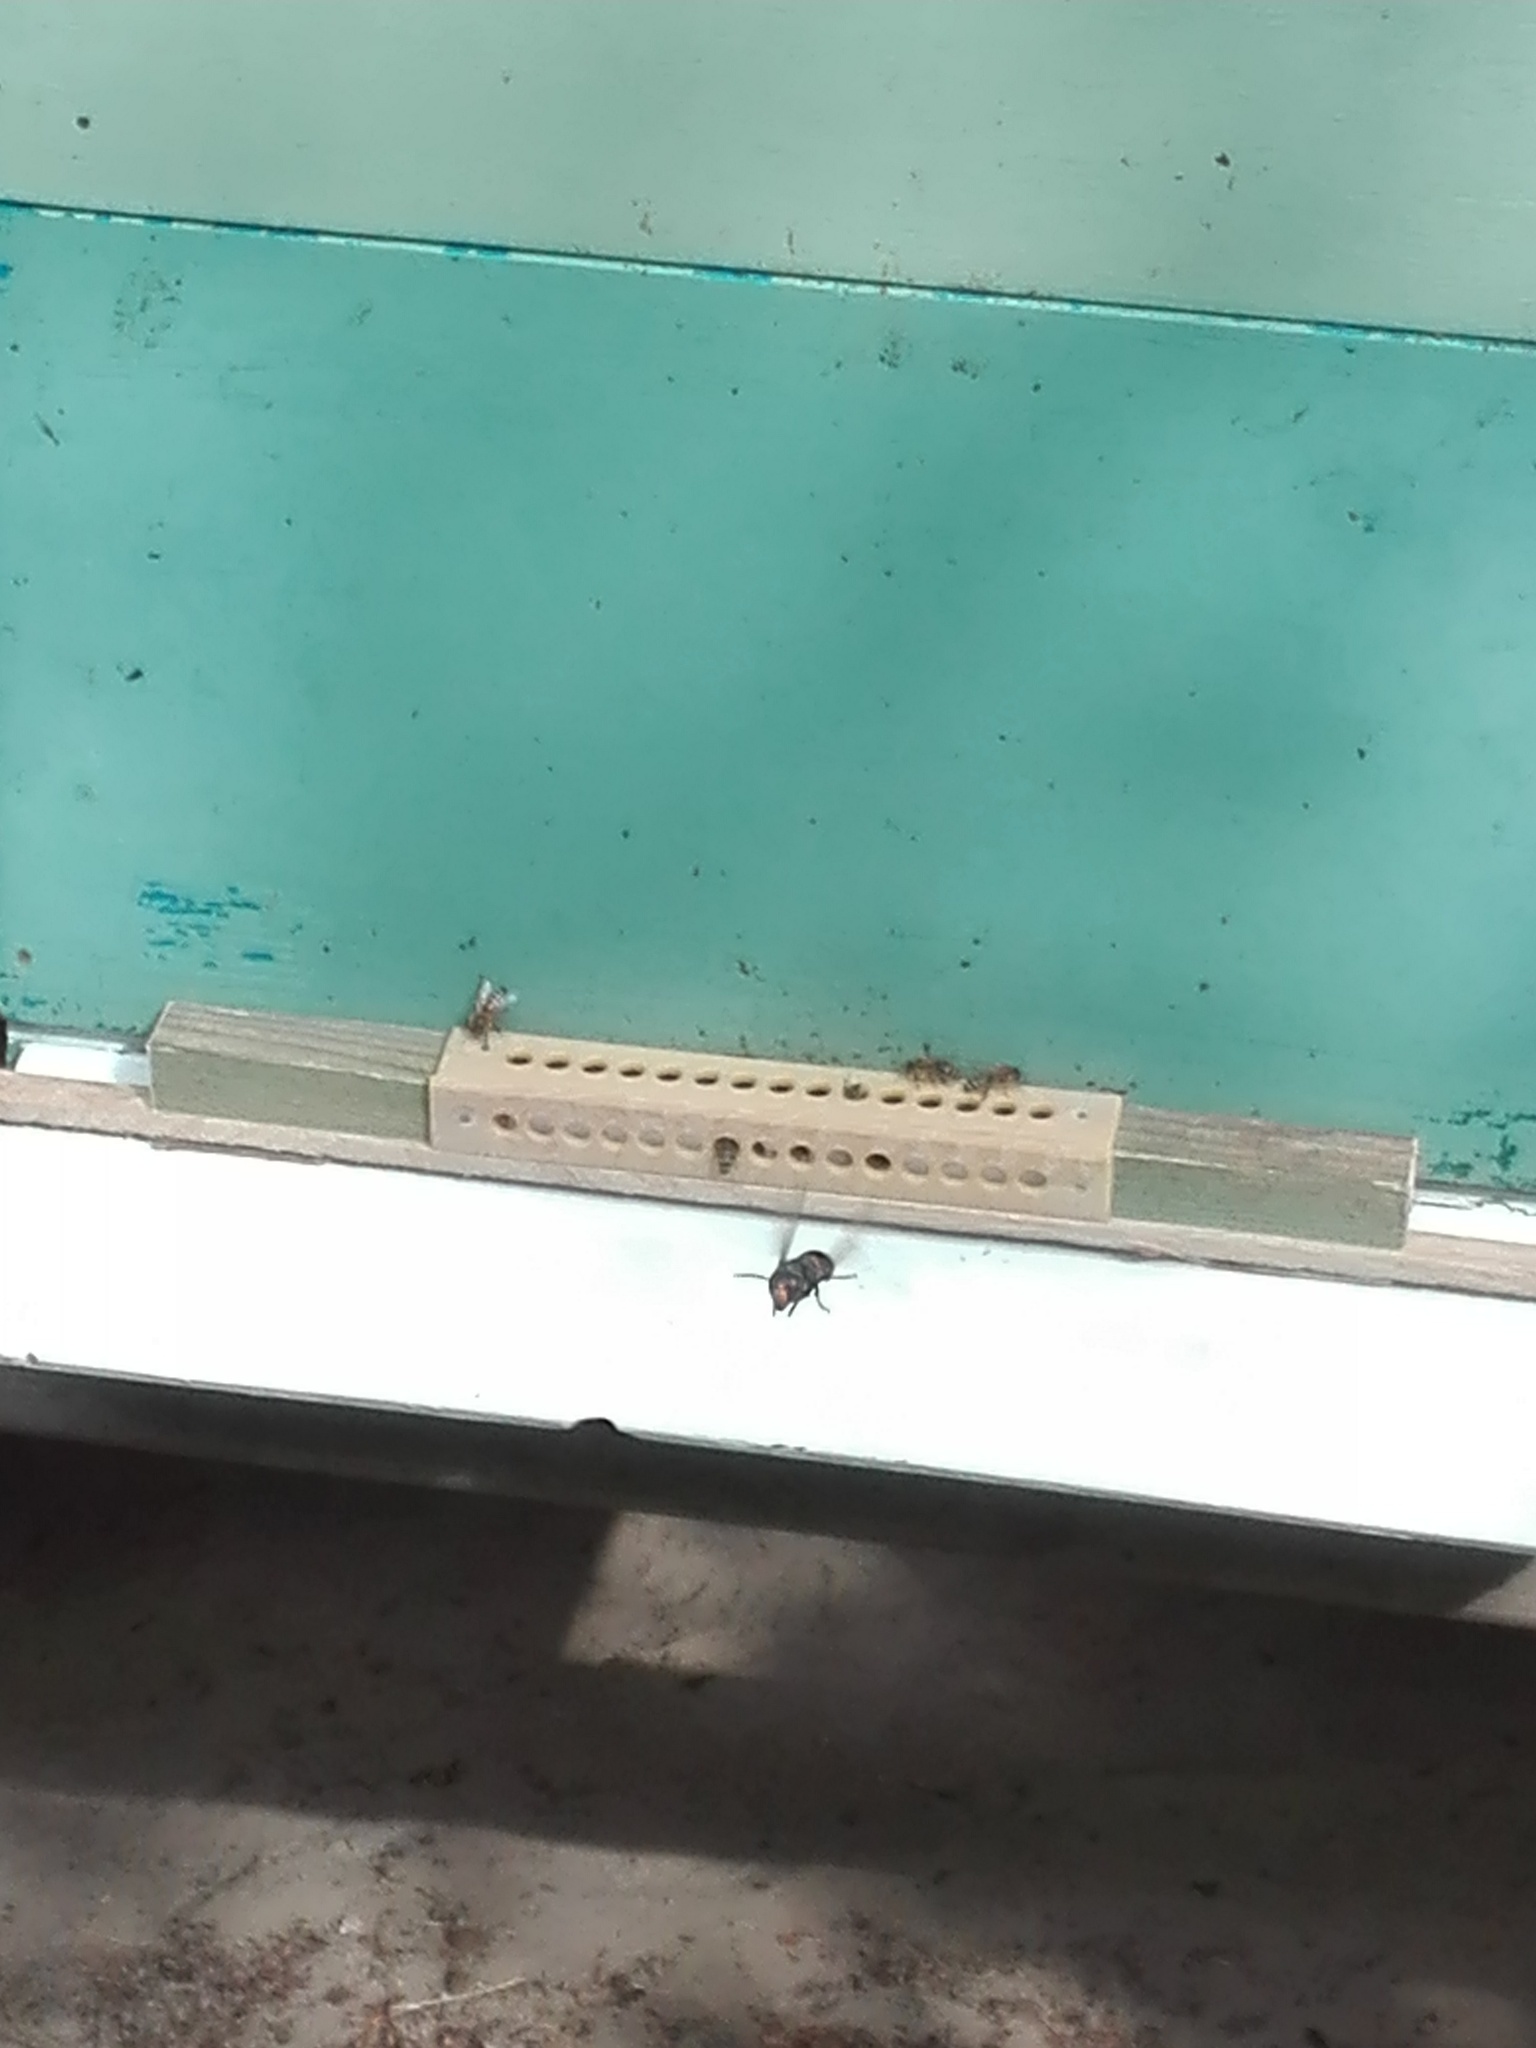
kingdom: Animalia
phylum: Arthropoda
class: Insecta
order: Hymenoptera
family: Vespidae
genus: Vespa
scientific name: Vespa velutina
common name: Asian hornet
